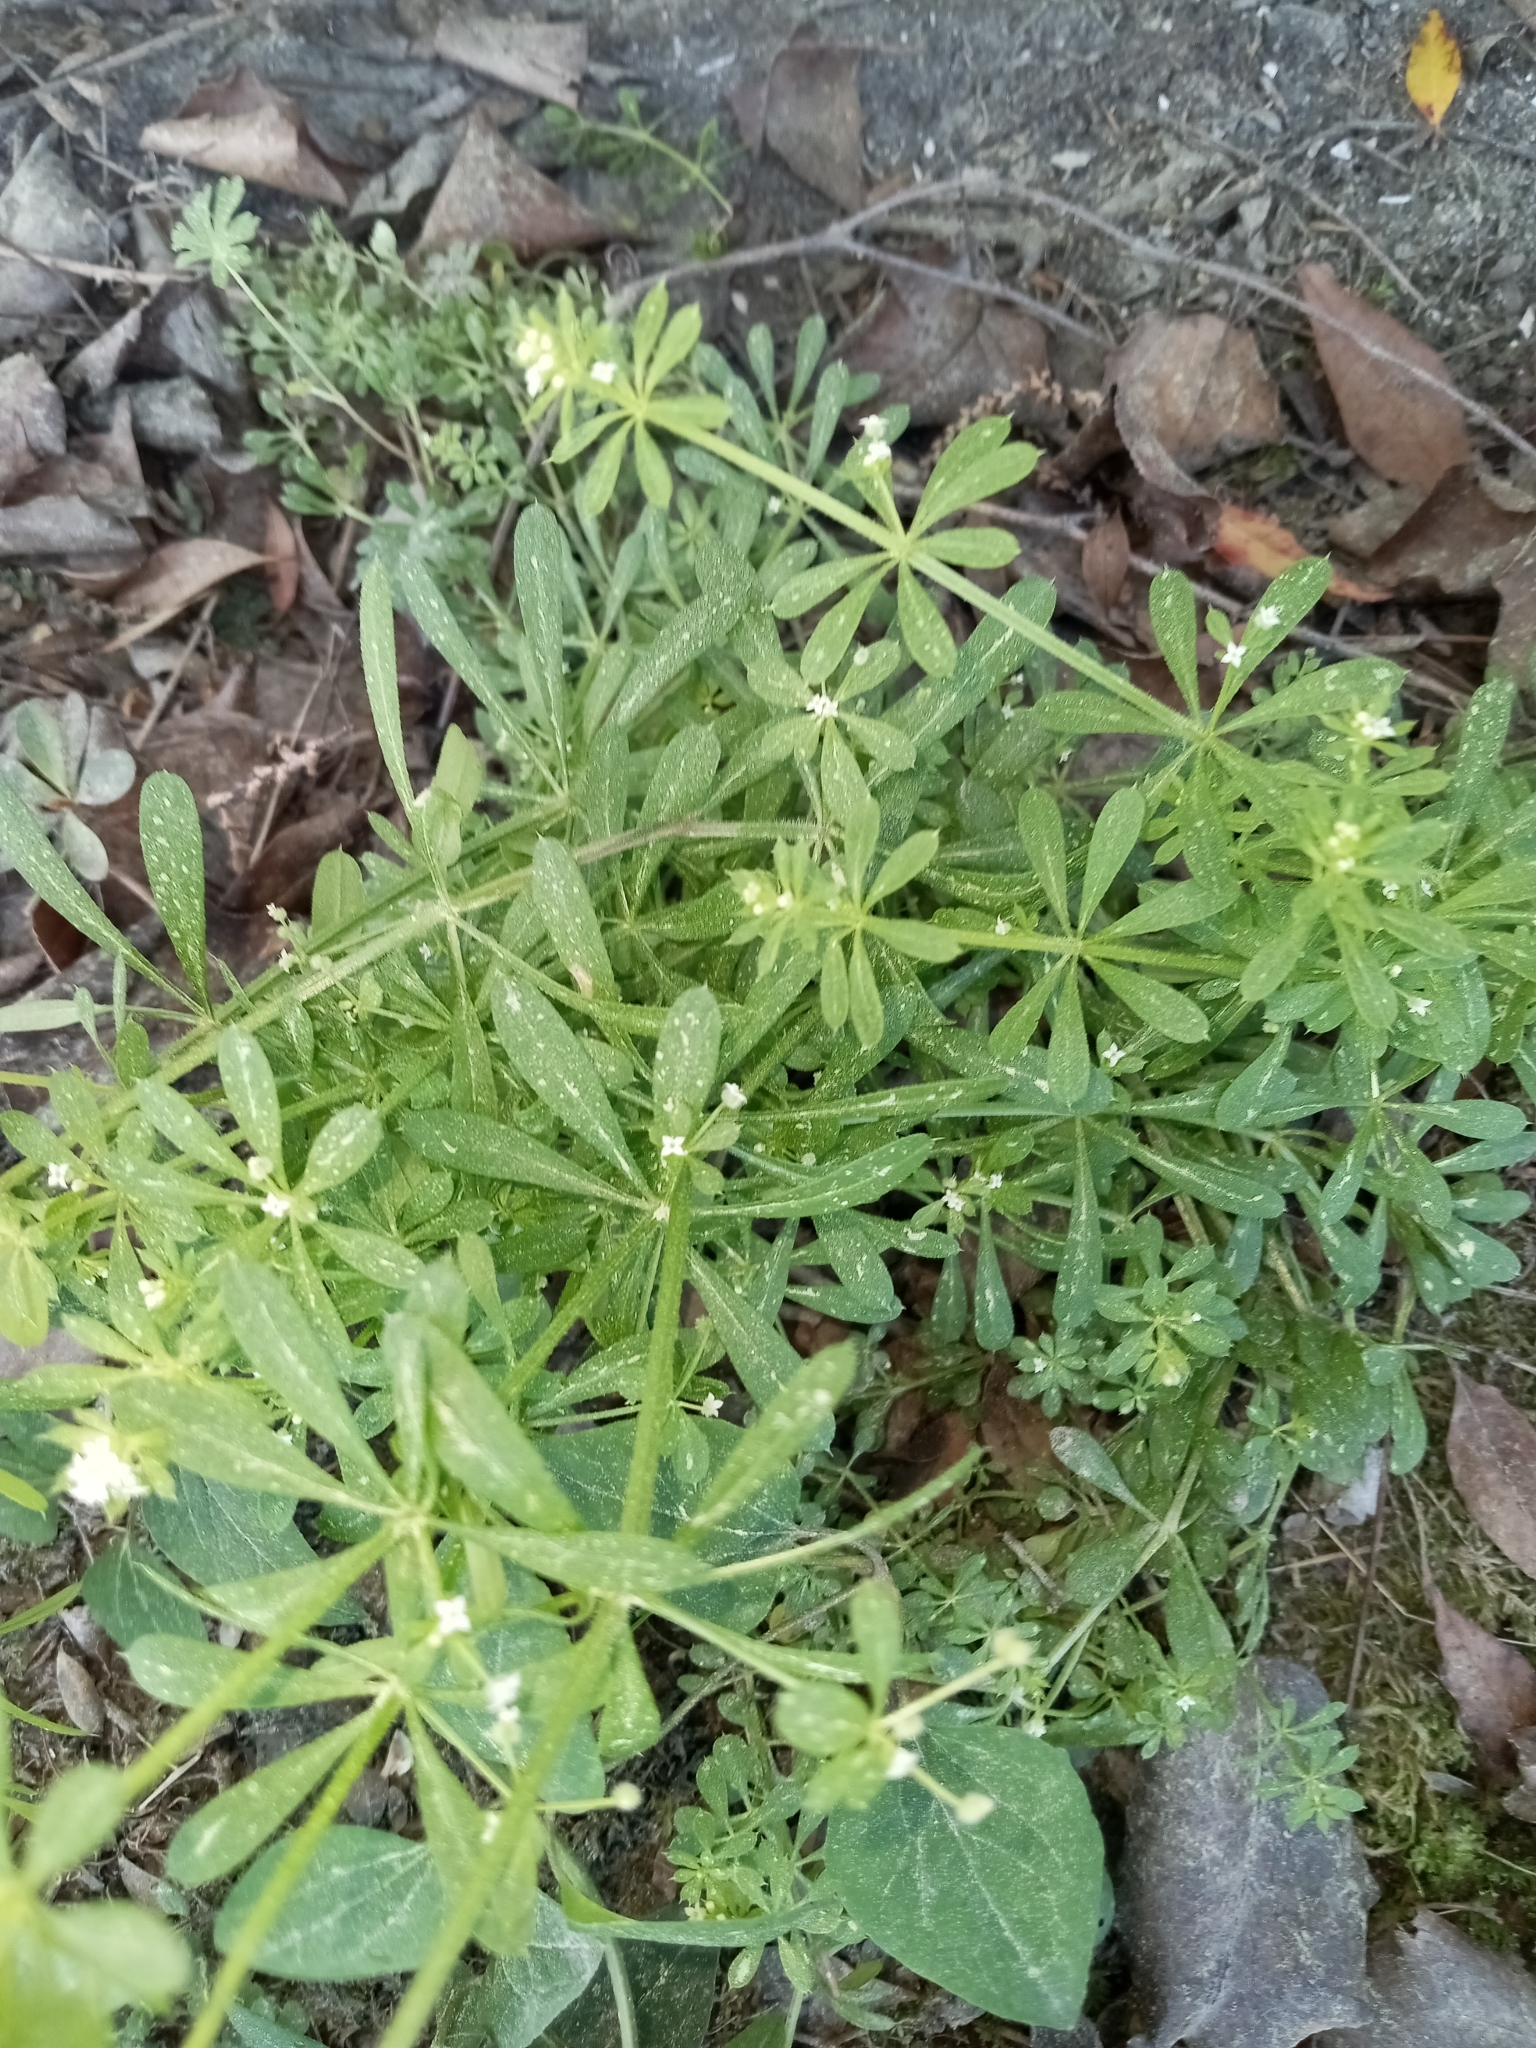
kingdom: Plantae
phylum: Tracheophyta
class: Magnoliopsida
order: Gentianales
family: Rubiaceae
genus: Galium
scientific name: Galium aparine
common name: Cleavers
